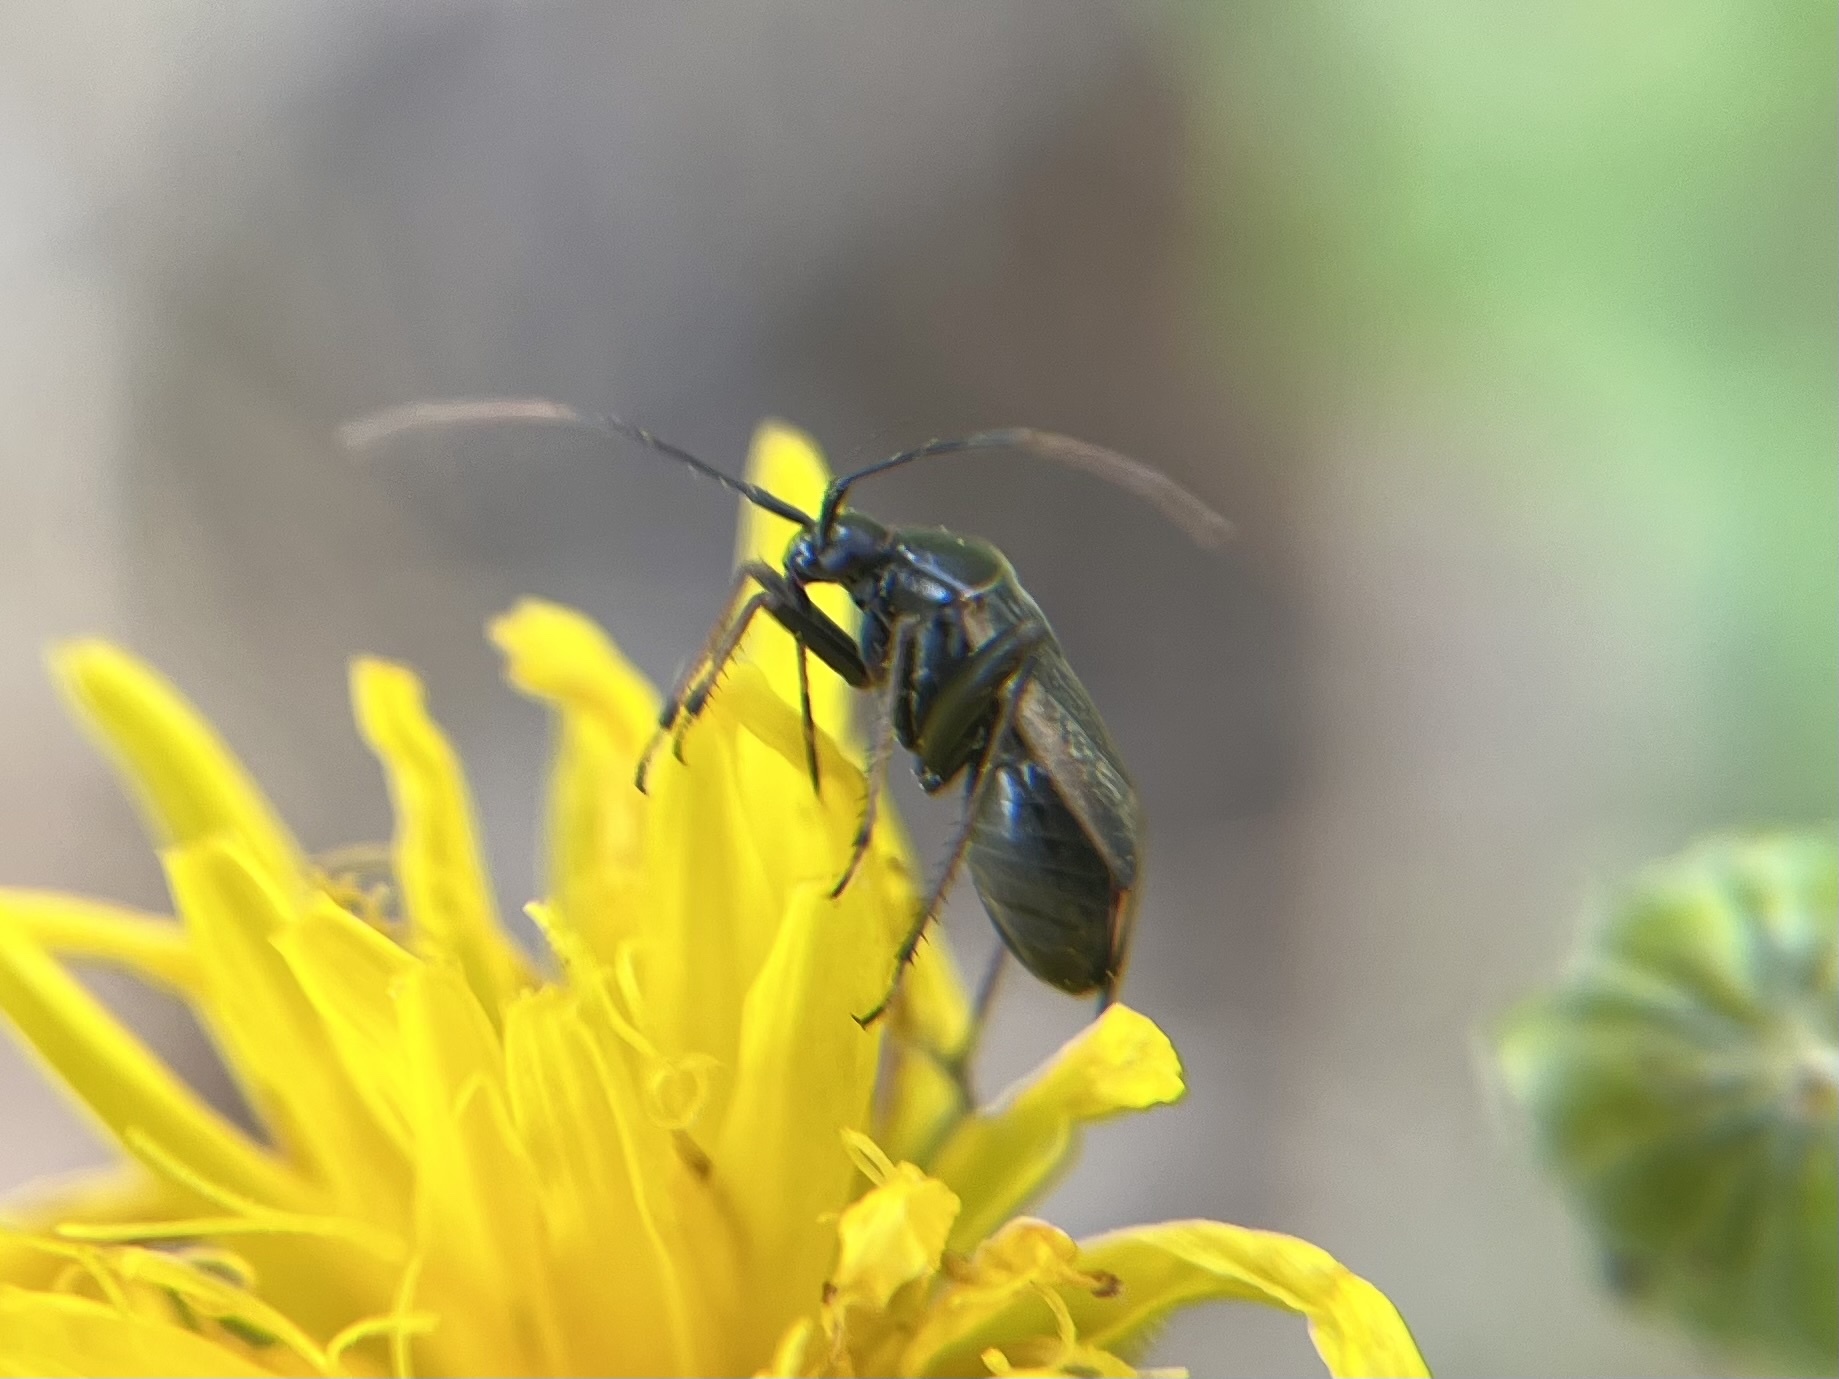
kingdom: Animalia
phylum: Arthropoda
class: Insecta
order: Hemiptera
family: Miridae
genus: Adelphocoris
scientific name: Adelphocoris seticornis
